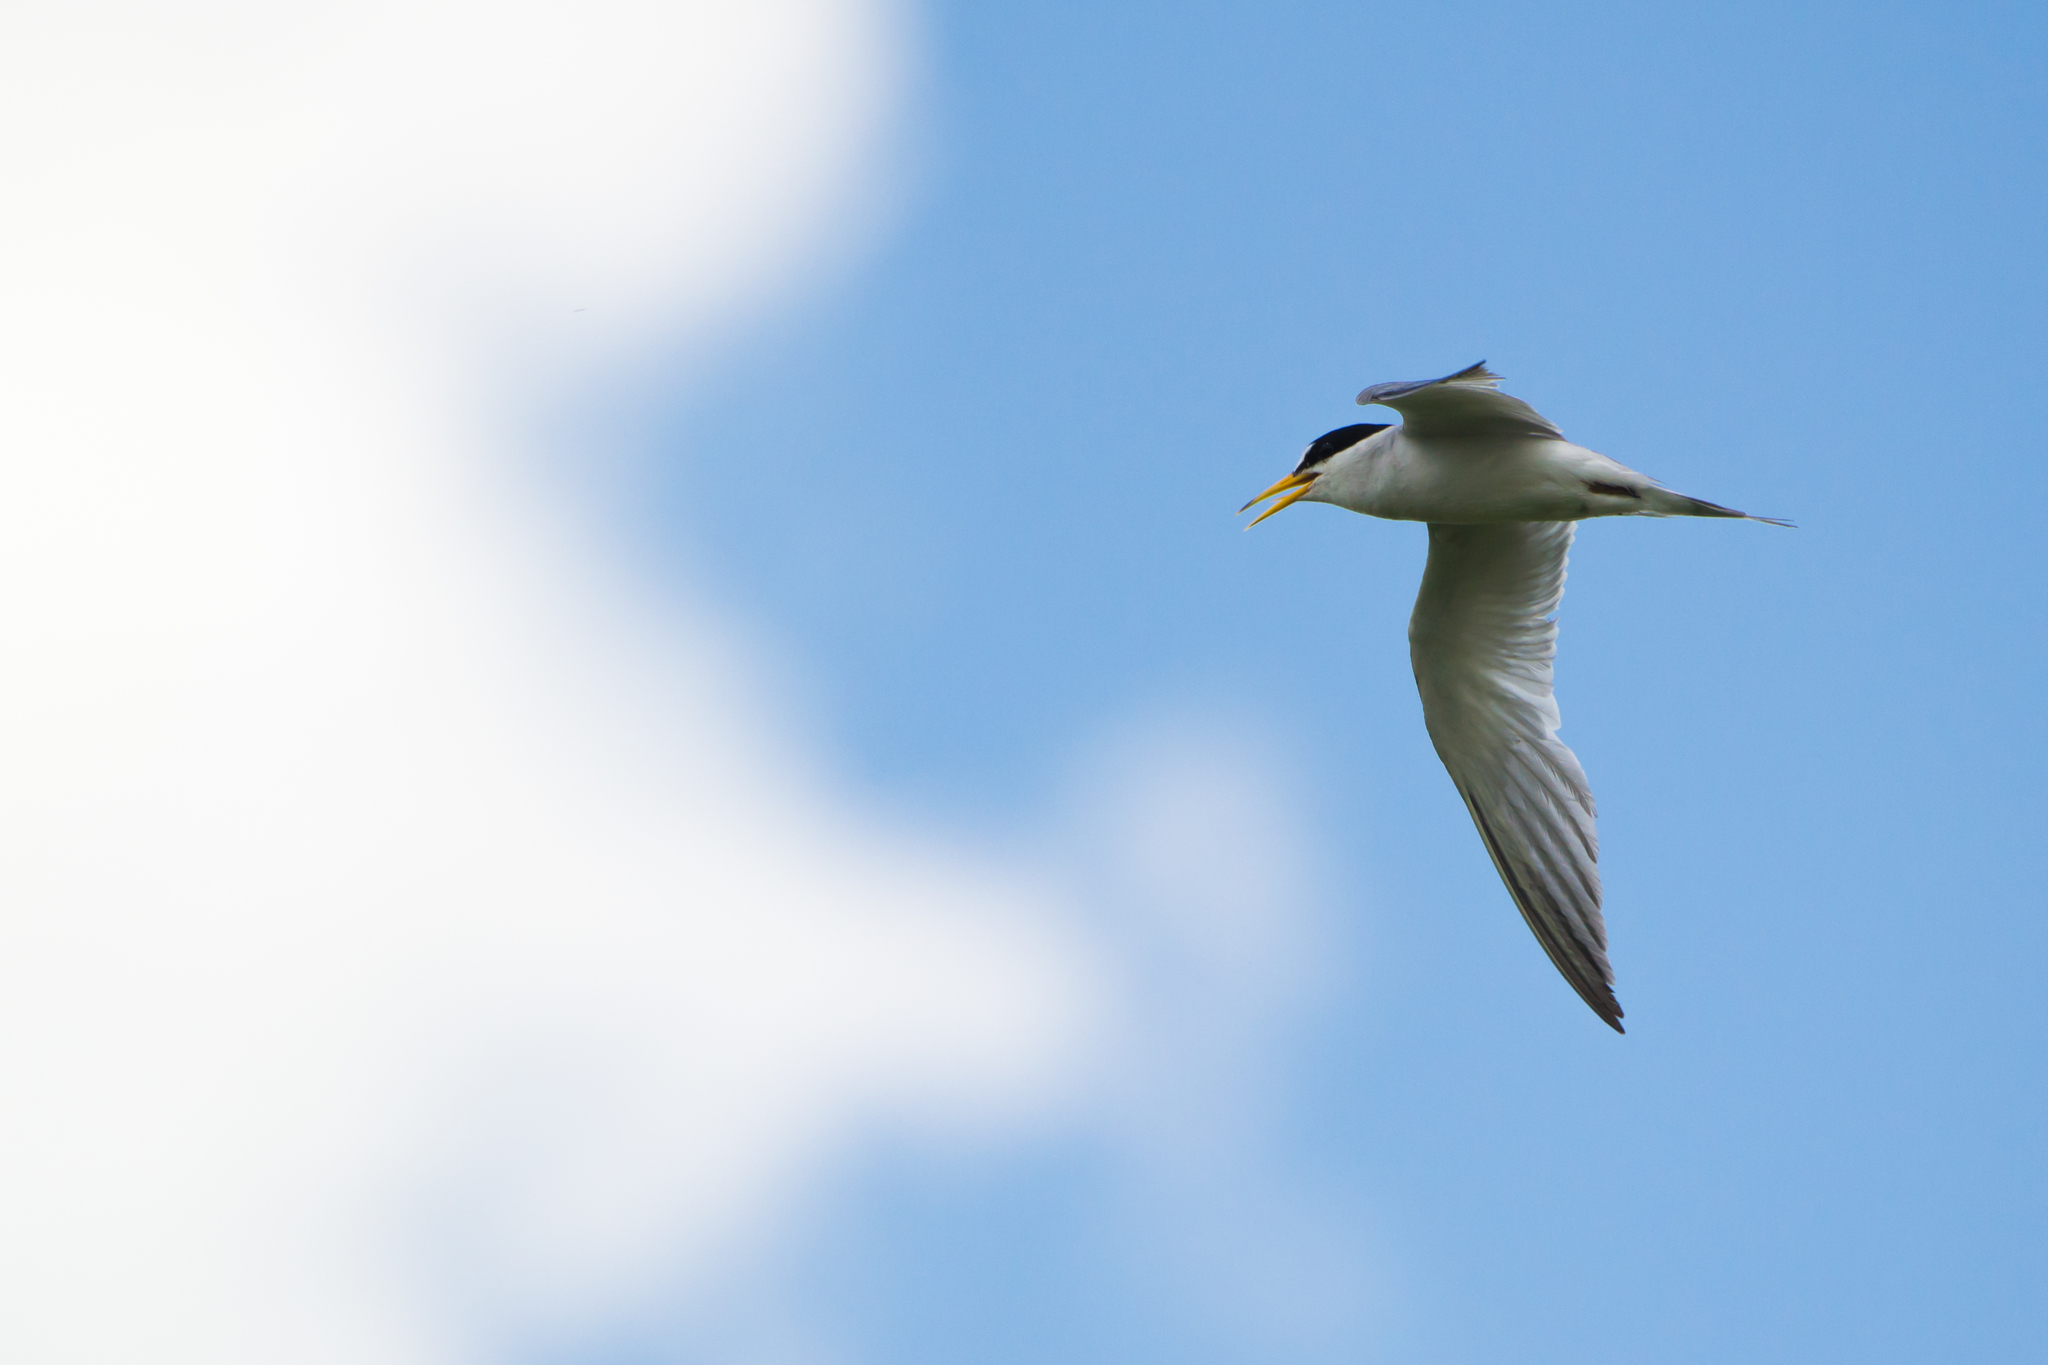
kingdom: Animalia
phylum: Chordata
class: Aves
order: Charadriiformes
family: Laridae
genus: Sternula
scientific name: Sternula antillarum
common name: Least tern
